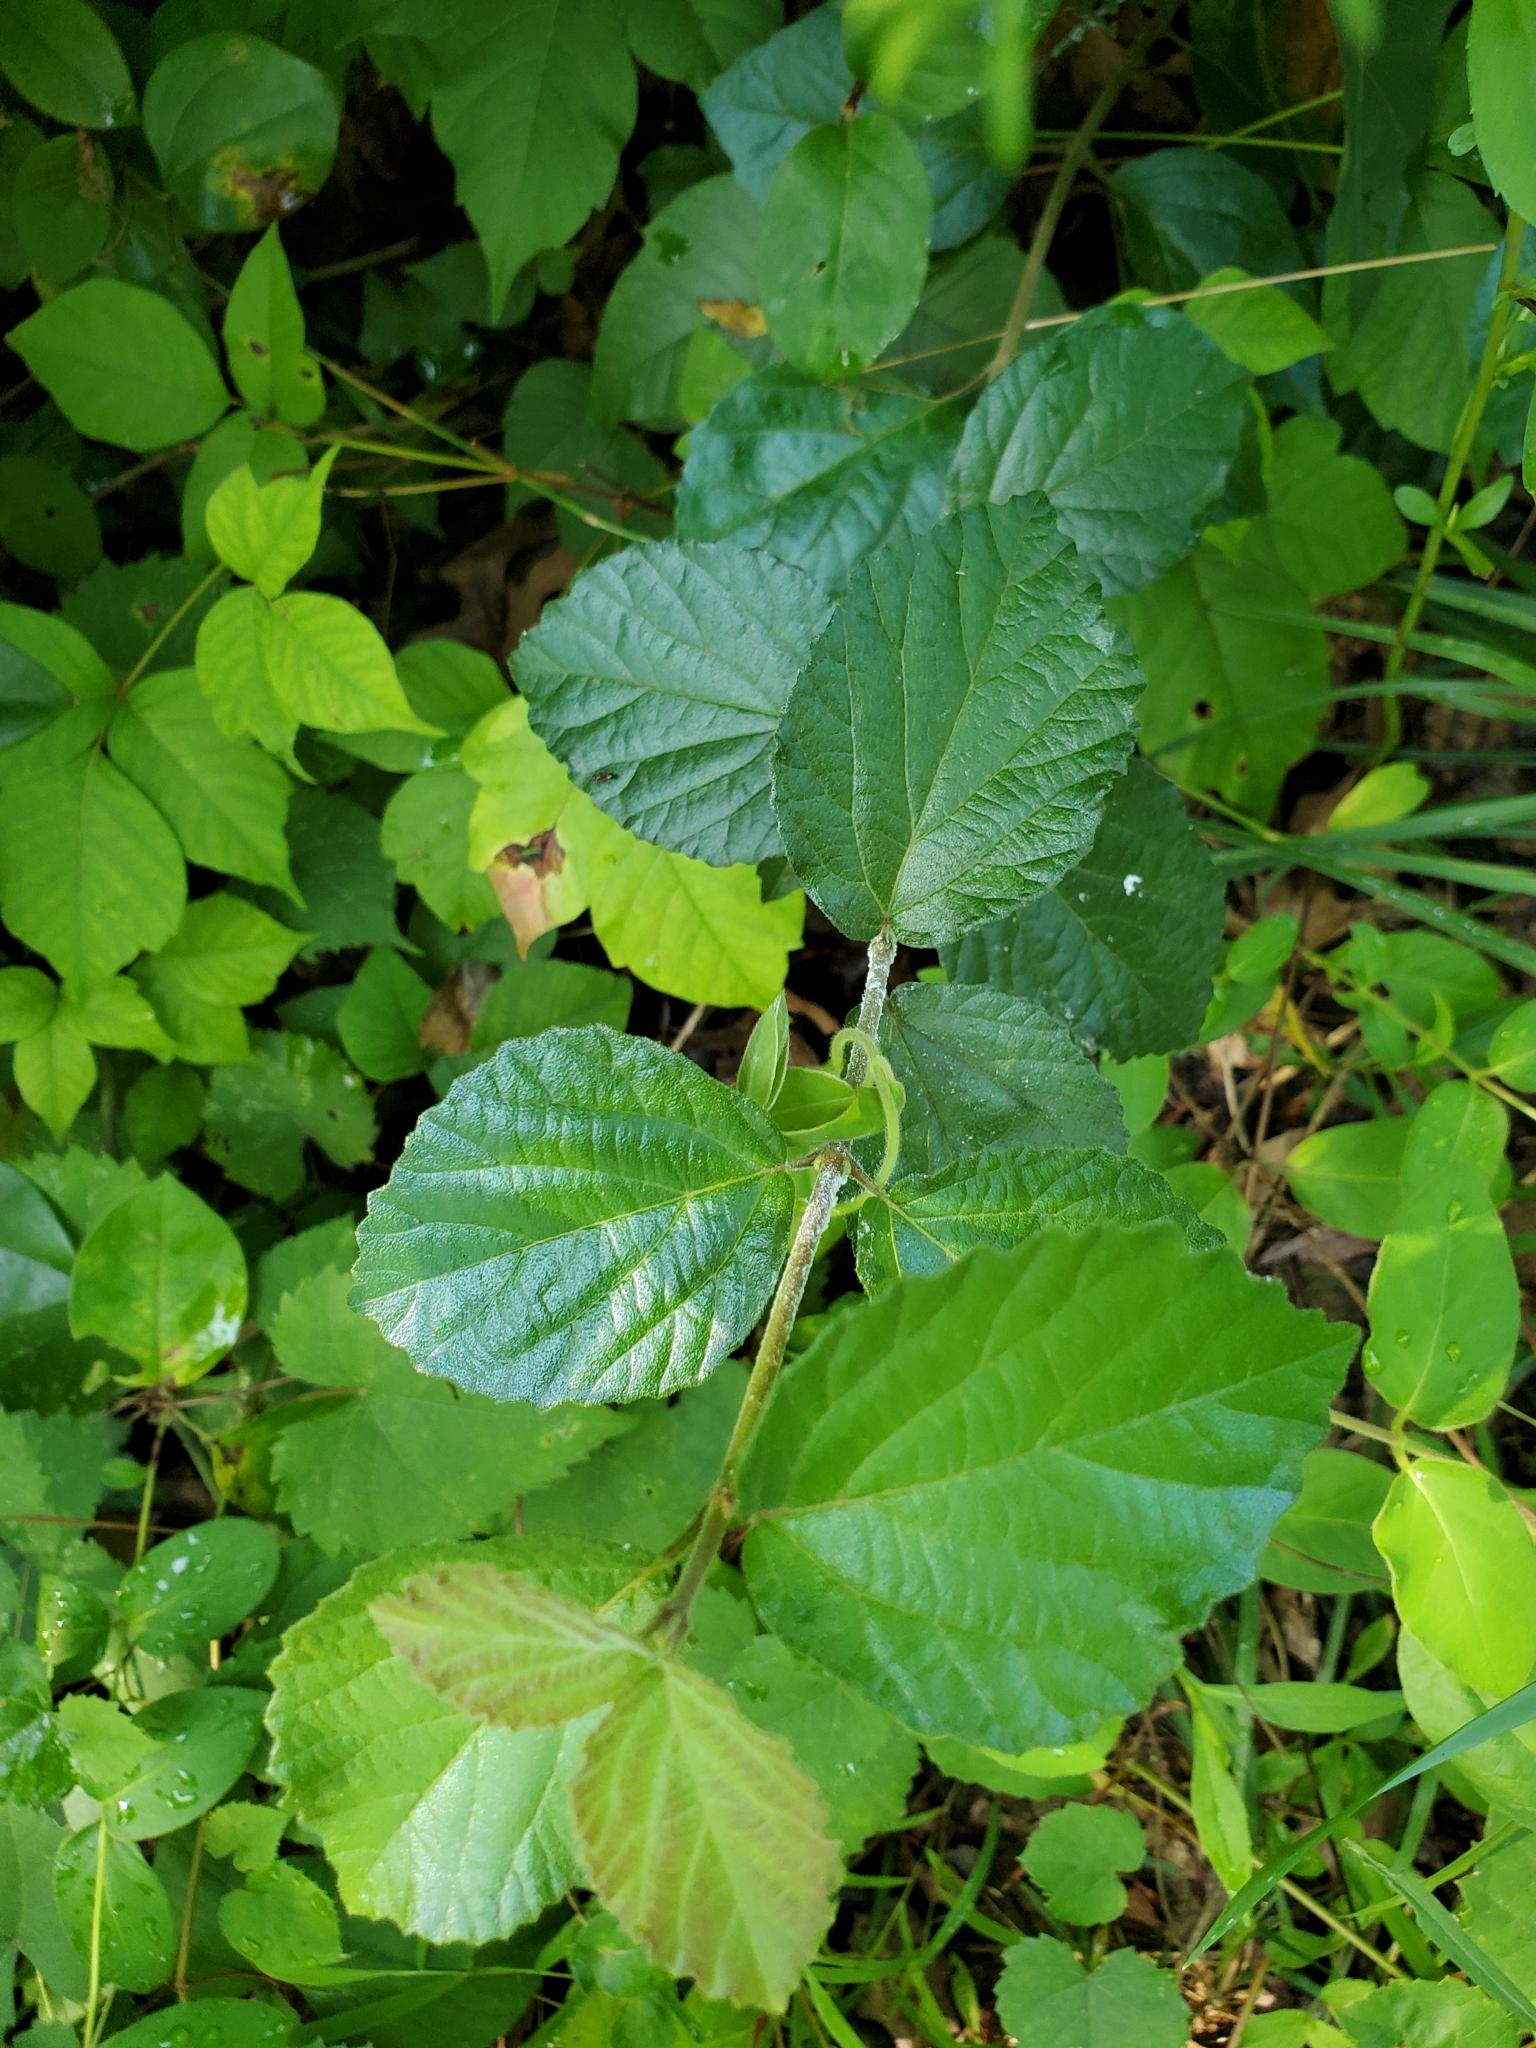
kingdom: Plantae
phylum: Tracheophyta
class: Magnoliopsida
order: Dipsacales
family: Viburnaceae
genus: Viburnum
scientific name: Viburnum dilatatum
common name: Linden arrowwood
